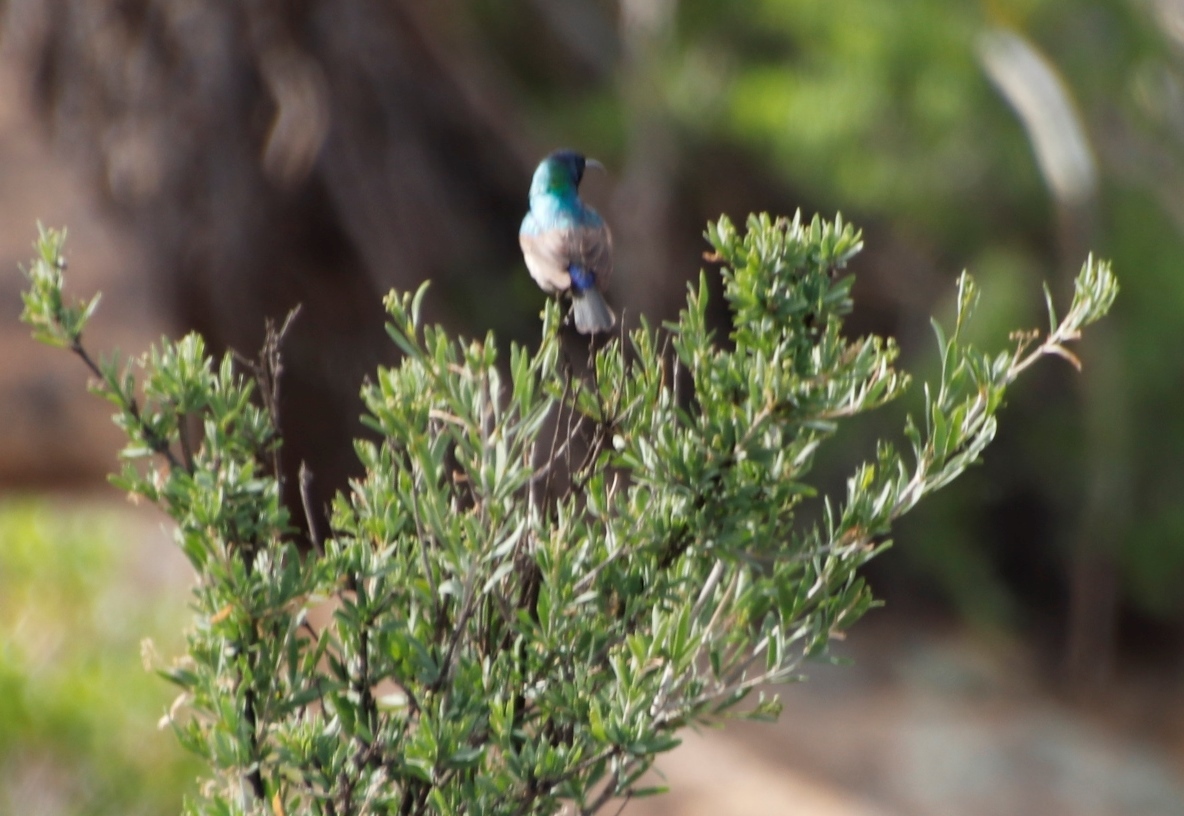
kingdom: Animalia
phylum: Chordata
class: Aves
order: Passeriformes
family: Nectariniidae
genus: Cinnyris
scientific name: Cinnyris chalybeus
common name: Southern double-collared sunbird
